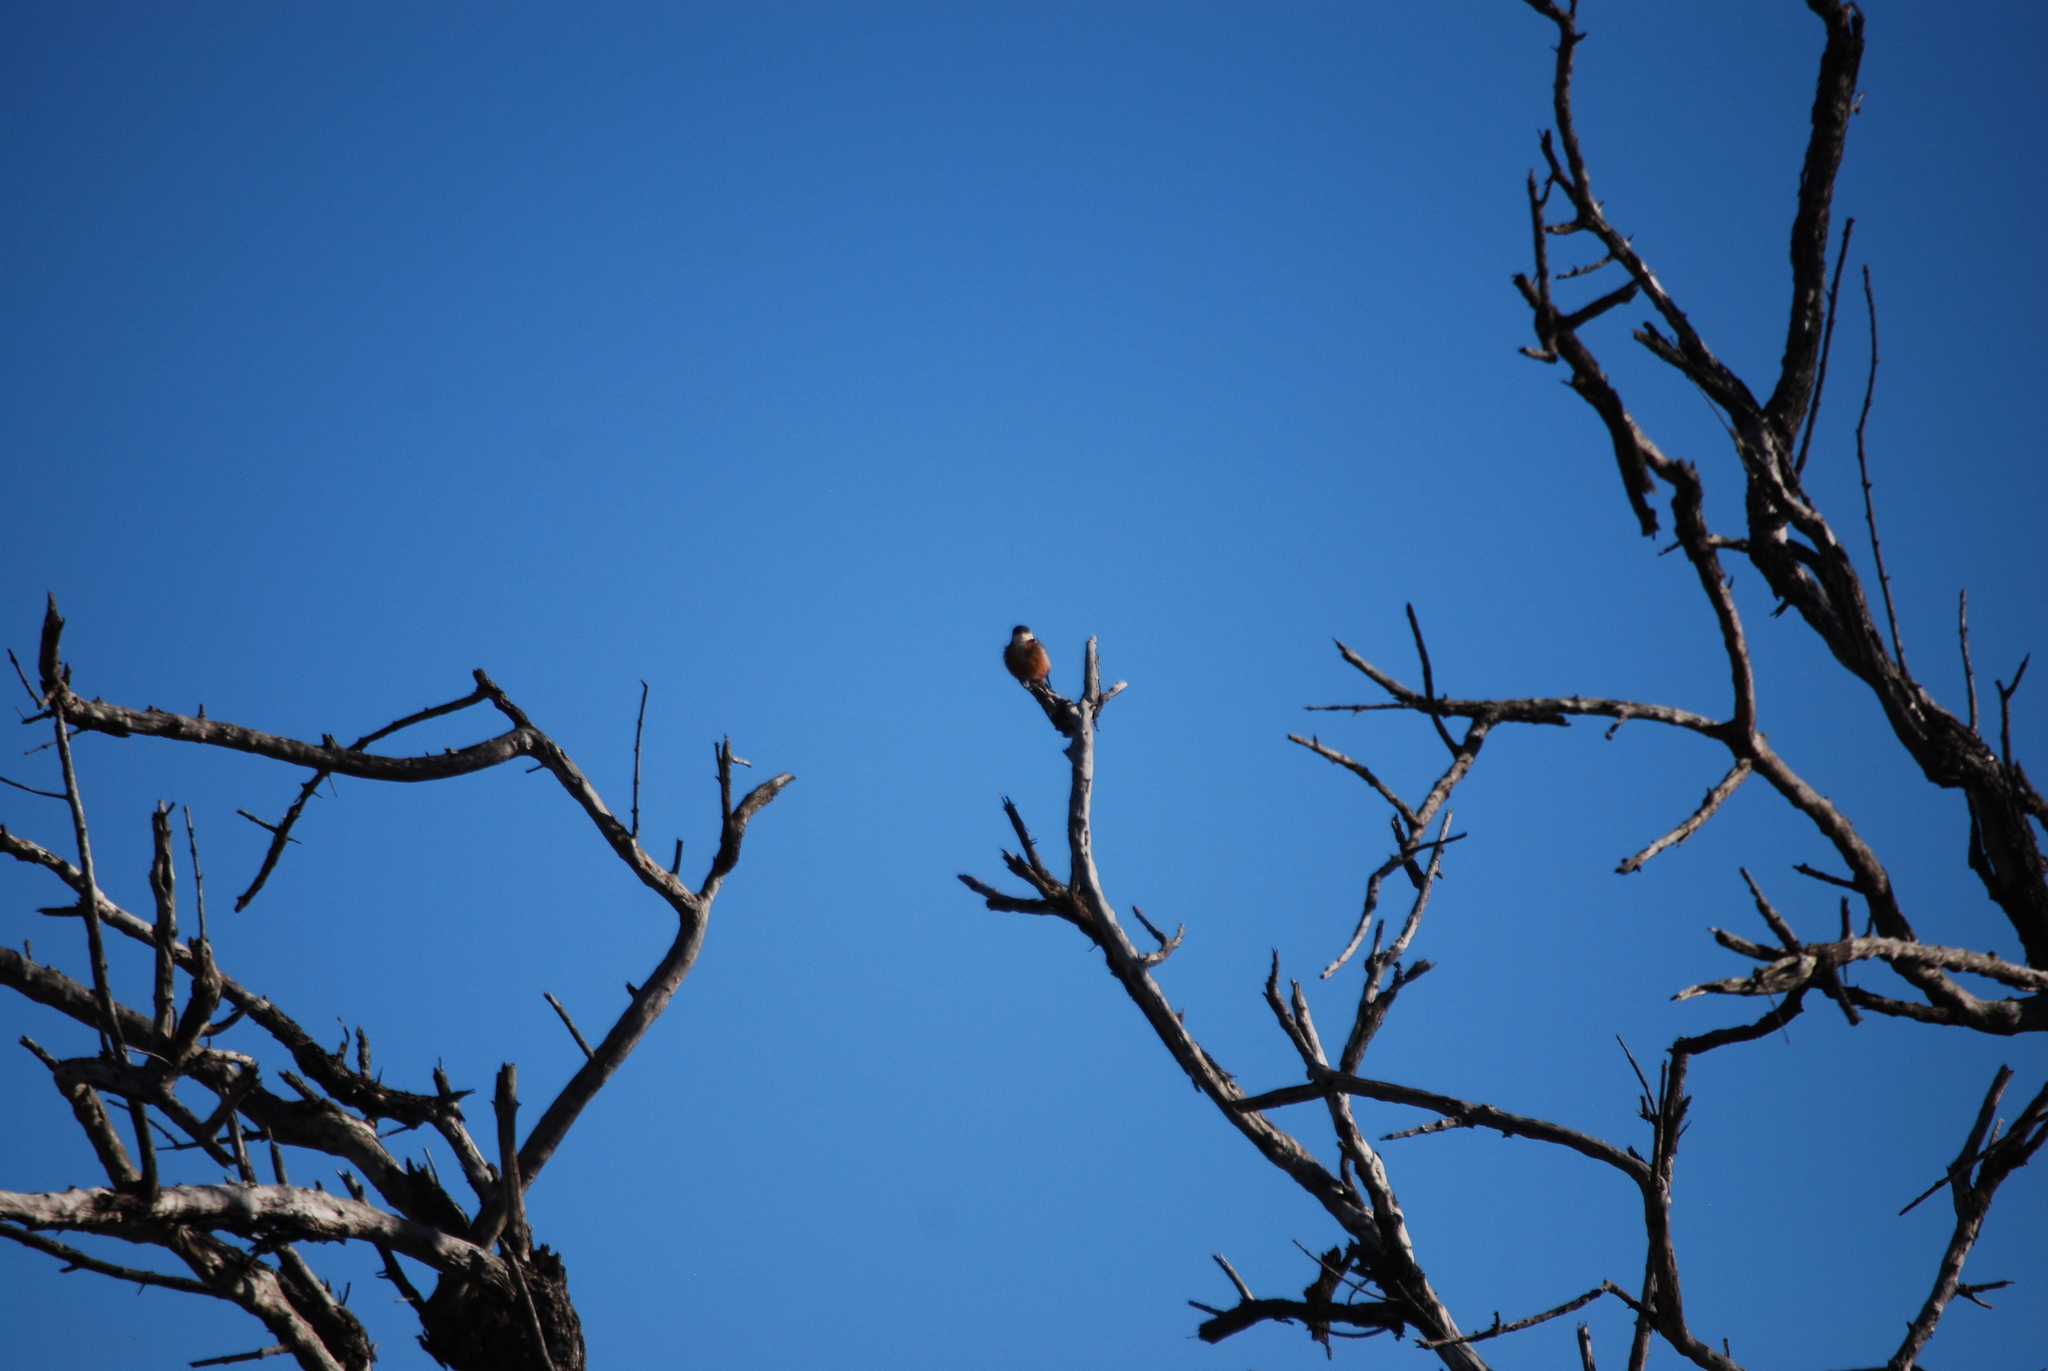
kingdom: Animalia
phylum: Chordata
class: Aves
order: Passeriformes
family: Hirundinidae
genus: Cecropis
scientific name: Cecropis senegalensis
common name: Mosque swallow
